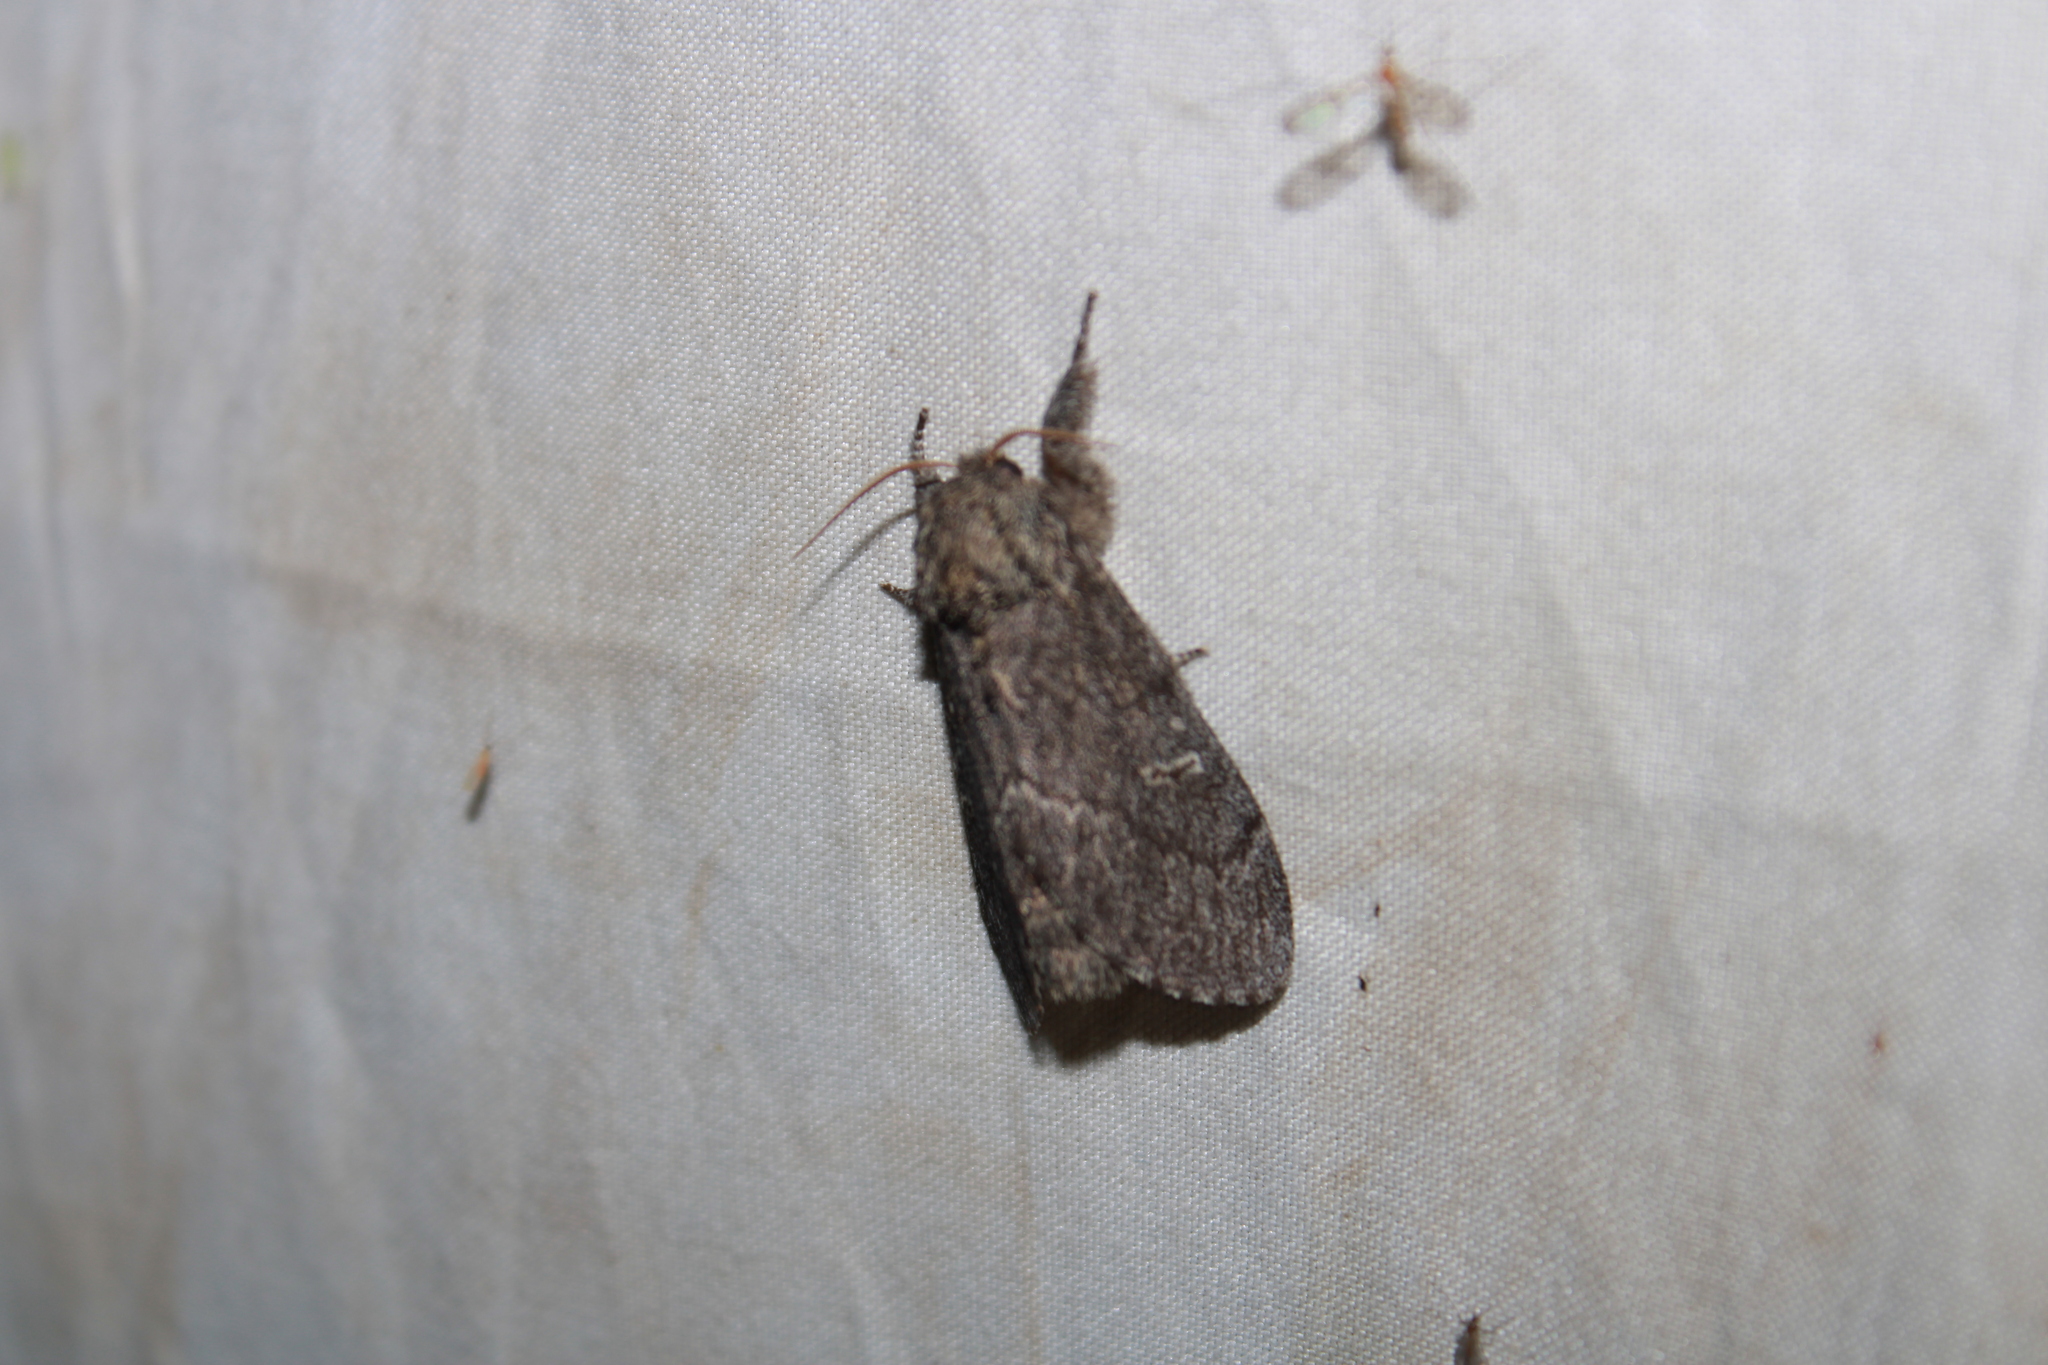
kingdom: Animalia
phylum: Arthropoda
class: Insecta
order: Lepidoptera
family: Notodontidae
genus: Notodonta
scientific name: Notodonta torva
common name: Large dark prominent
